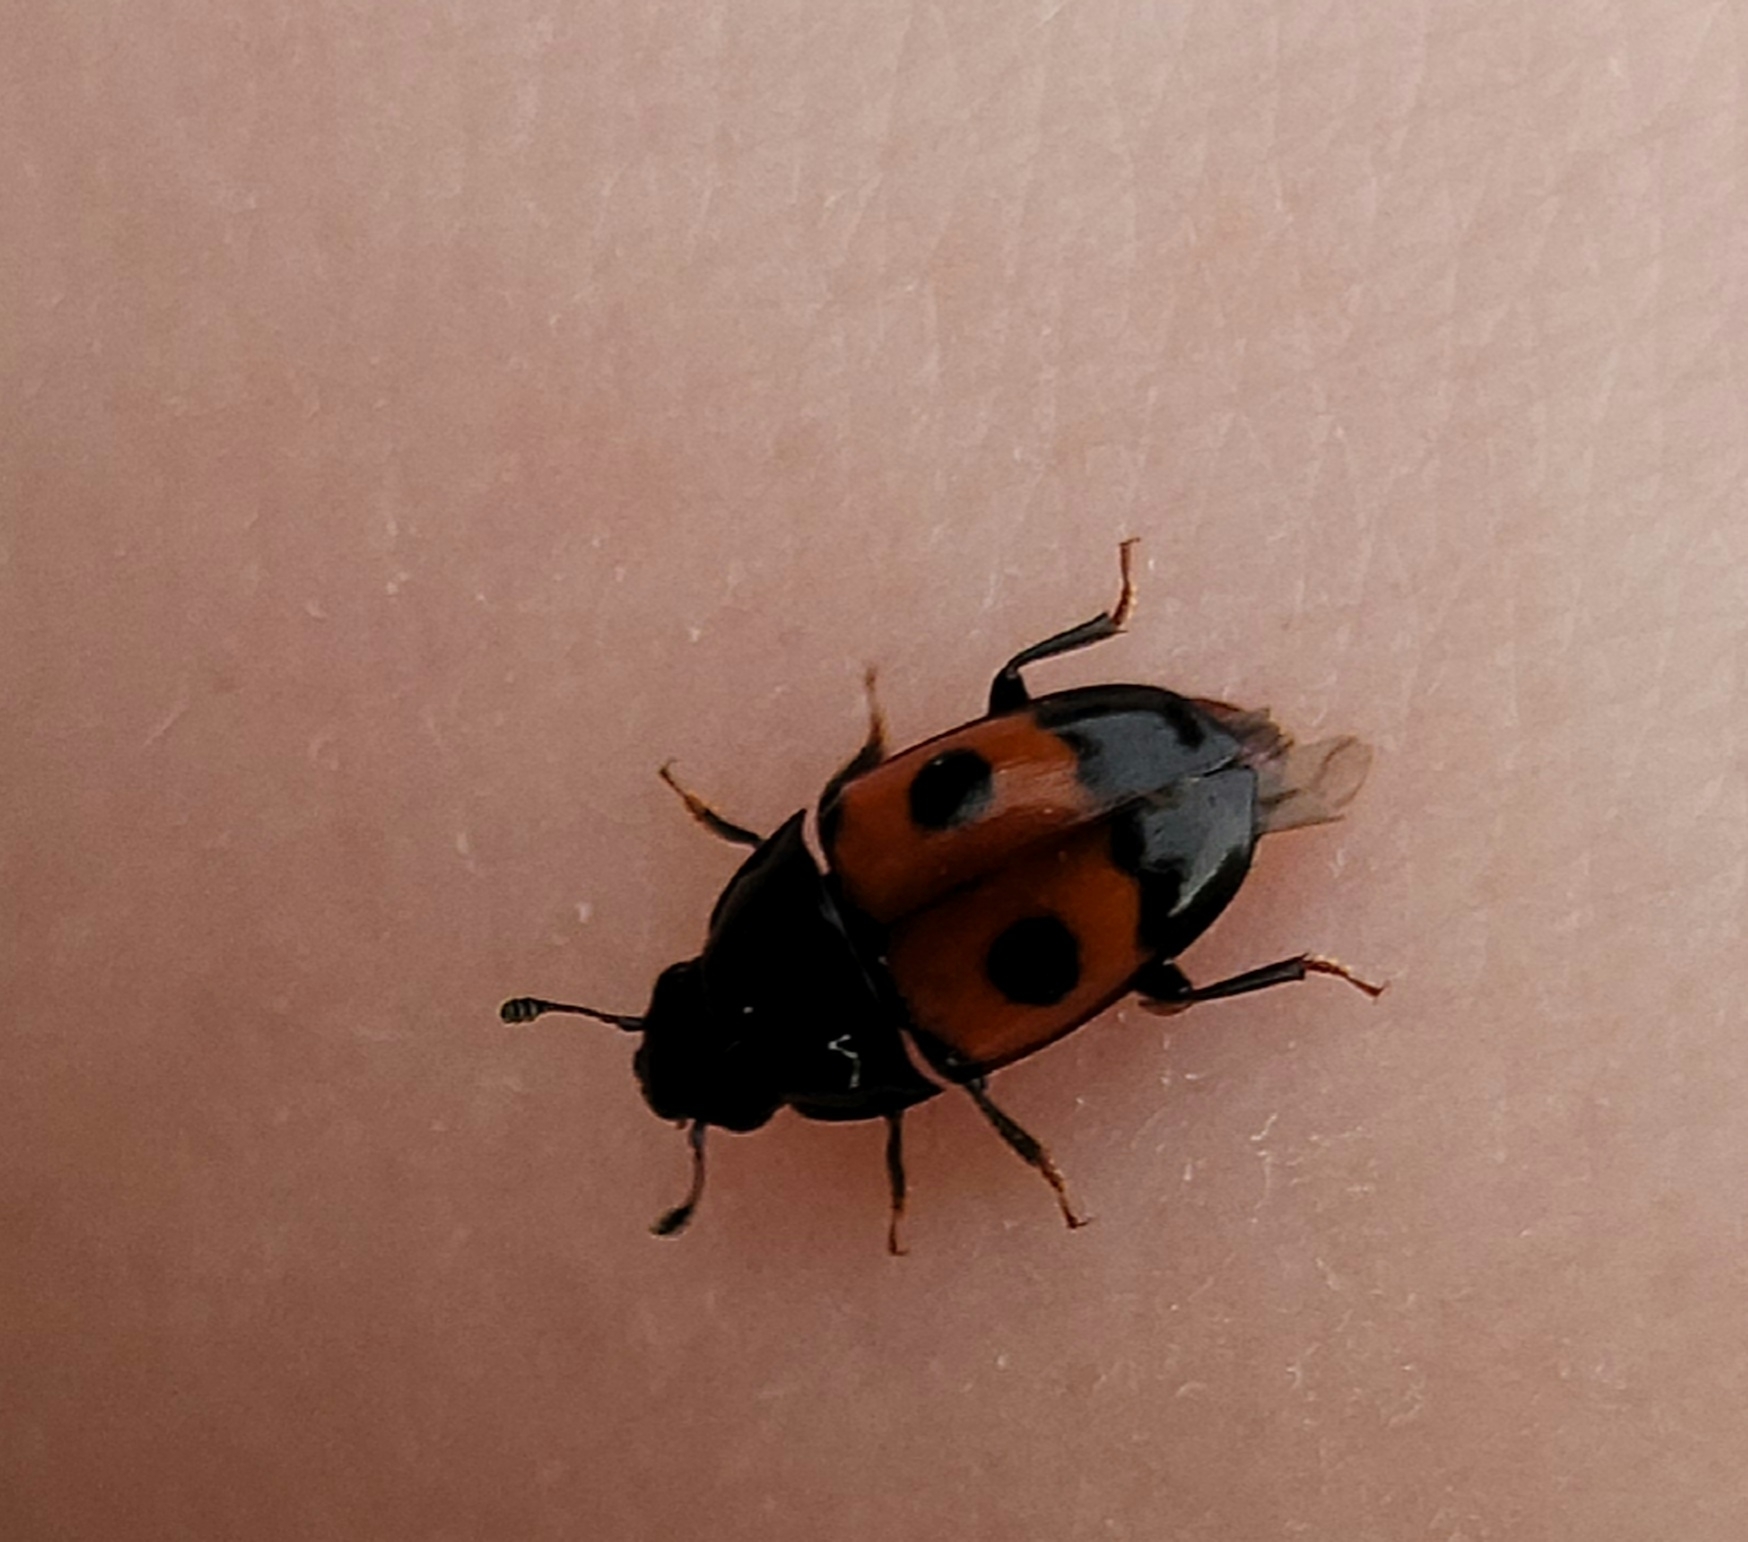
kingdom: Animalia
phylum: Arthropoda
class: Insecta
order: Coleoptera
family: Nitidulidae
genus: Glischrochilus
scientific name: Glischrochilus sanguinolentus
